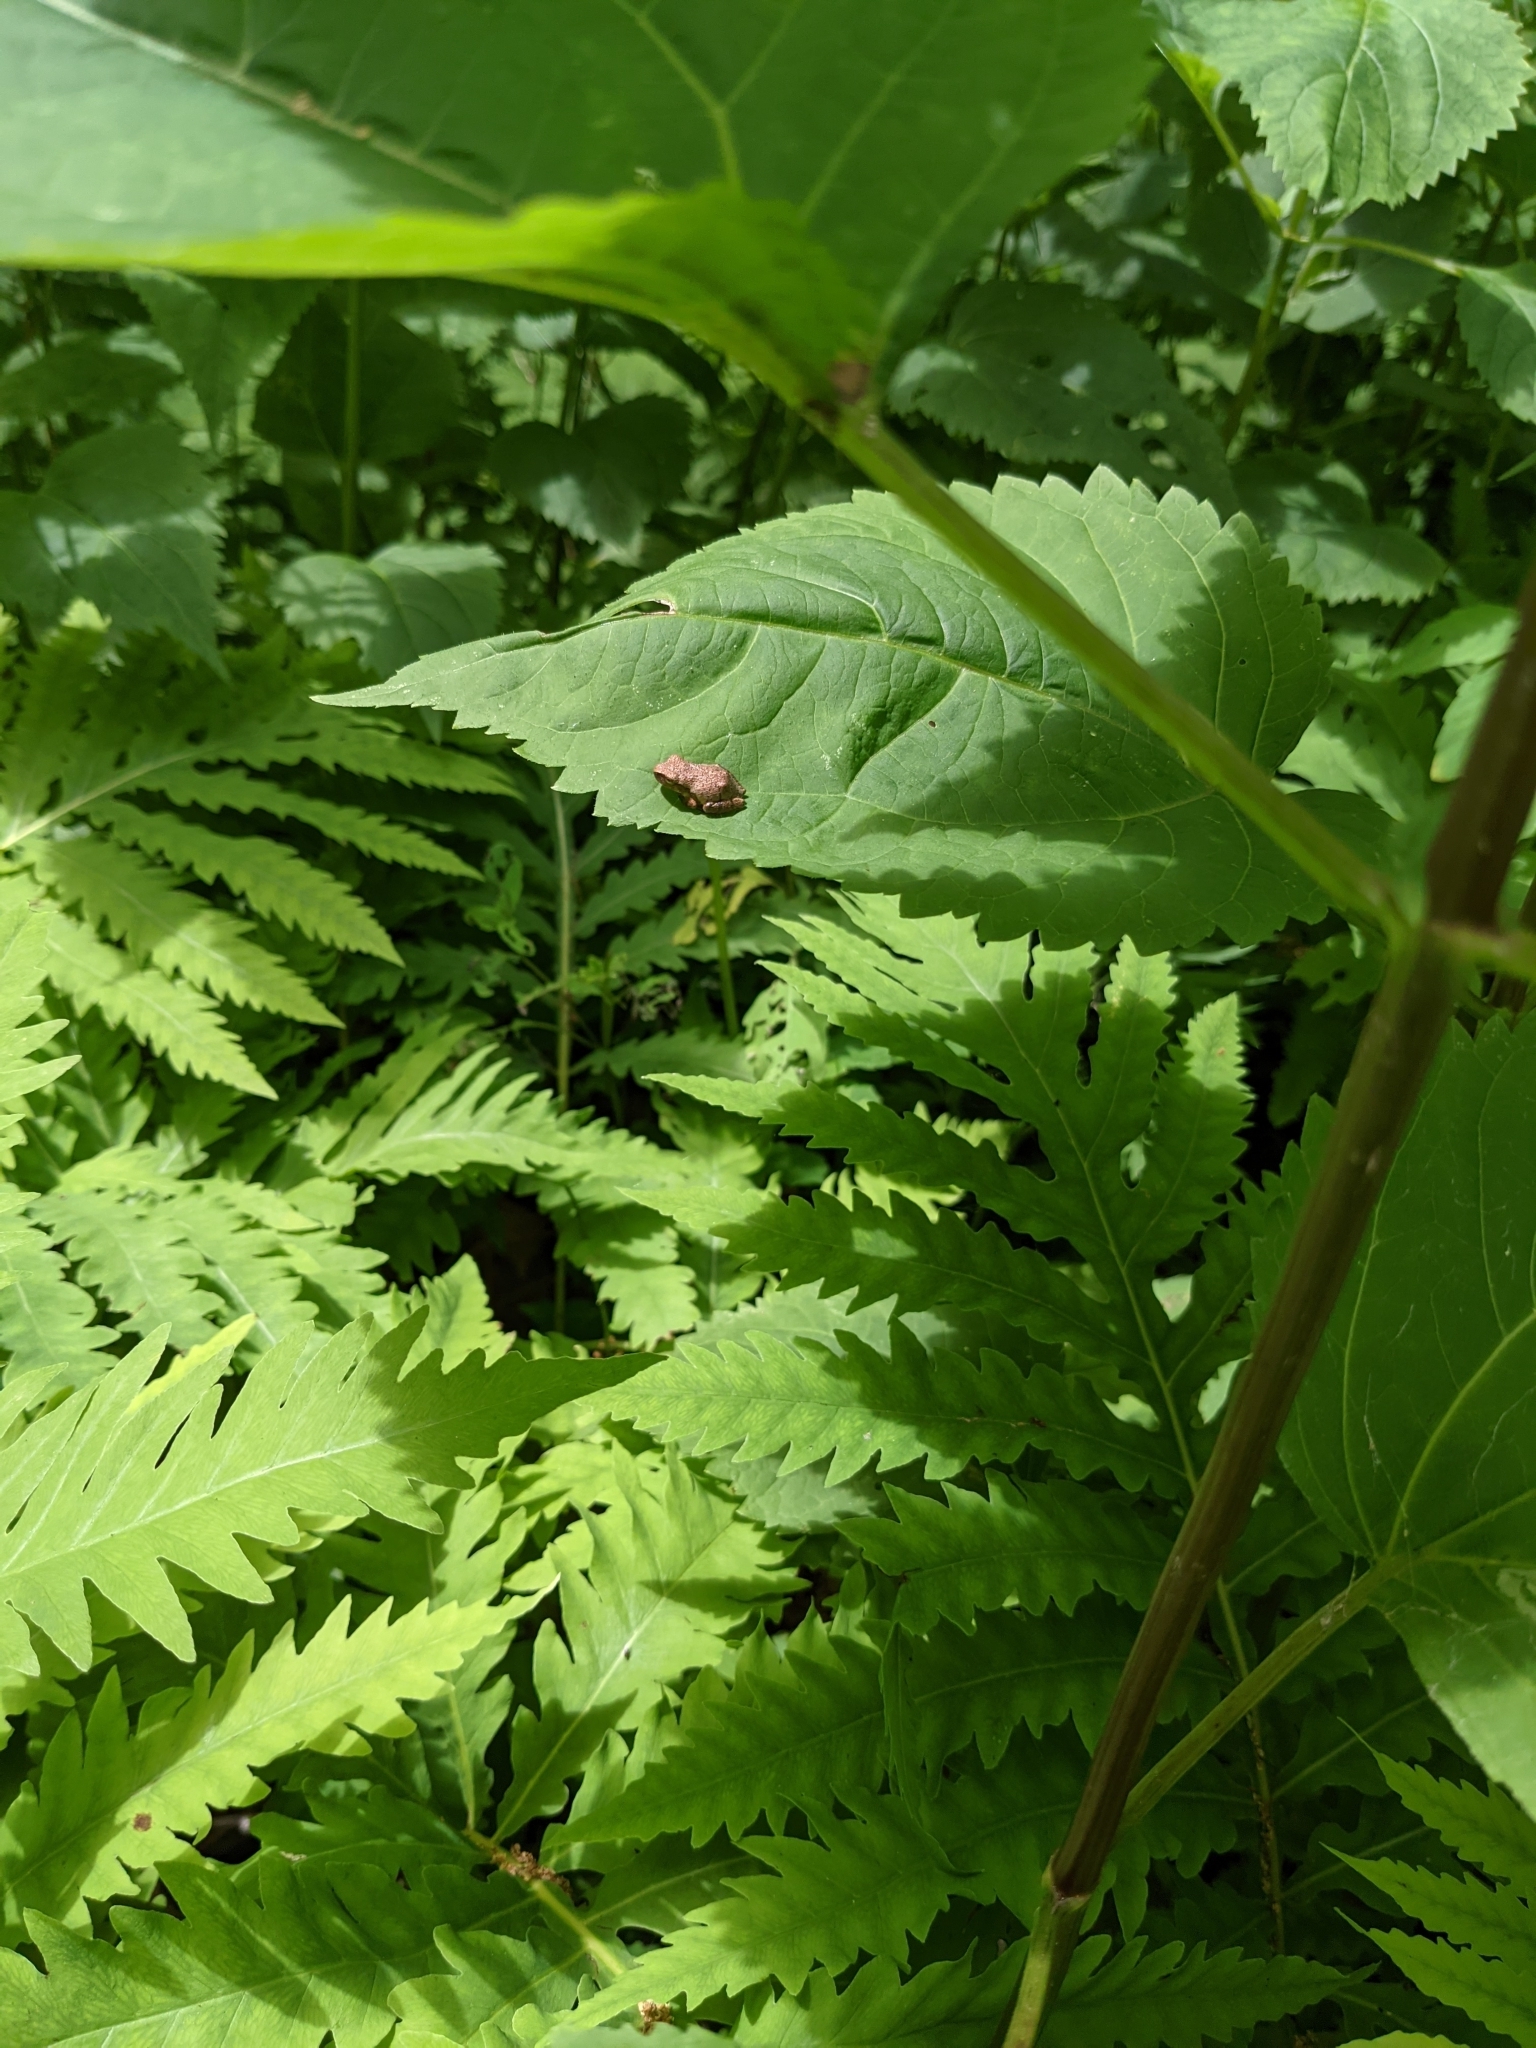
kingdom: Animalia
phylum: Chordata
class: Amphibia
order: Anura
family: Hylidae
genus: Pseudacris
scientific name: Pseudacris crucifer
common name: Spring peeper
